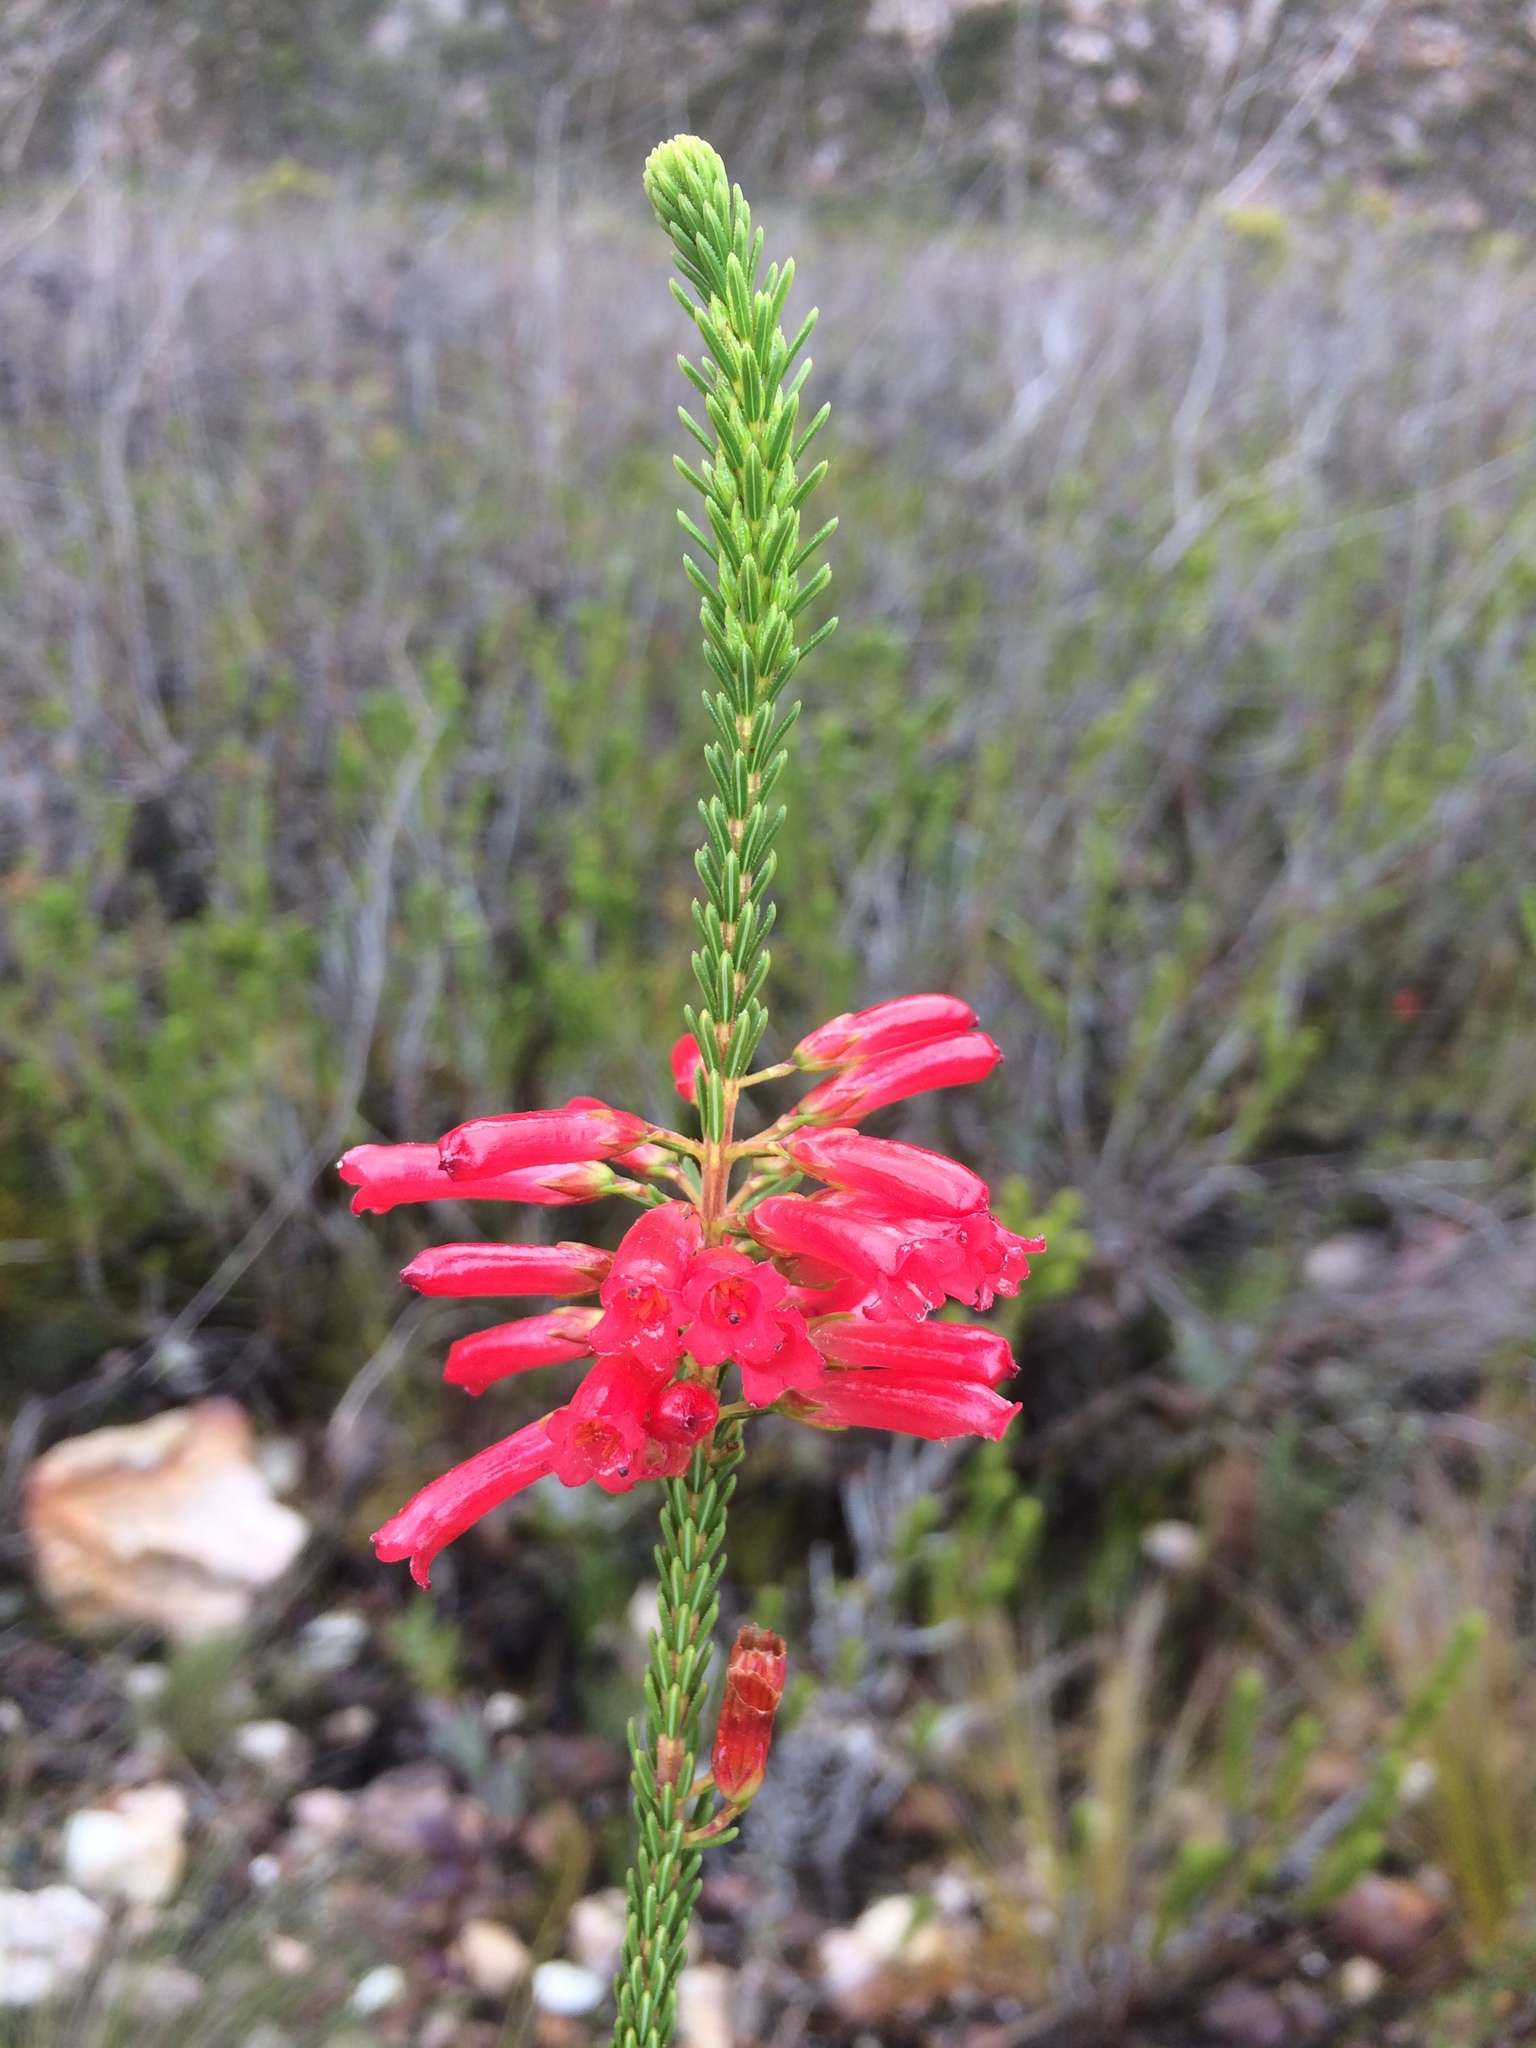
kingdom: Plantae
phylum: Tracheophyta
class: Magnoliopsida
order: Ericales
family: Ericaceae
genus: Erica
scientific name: Erica regia
